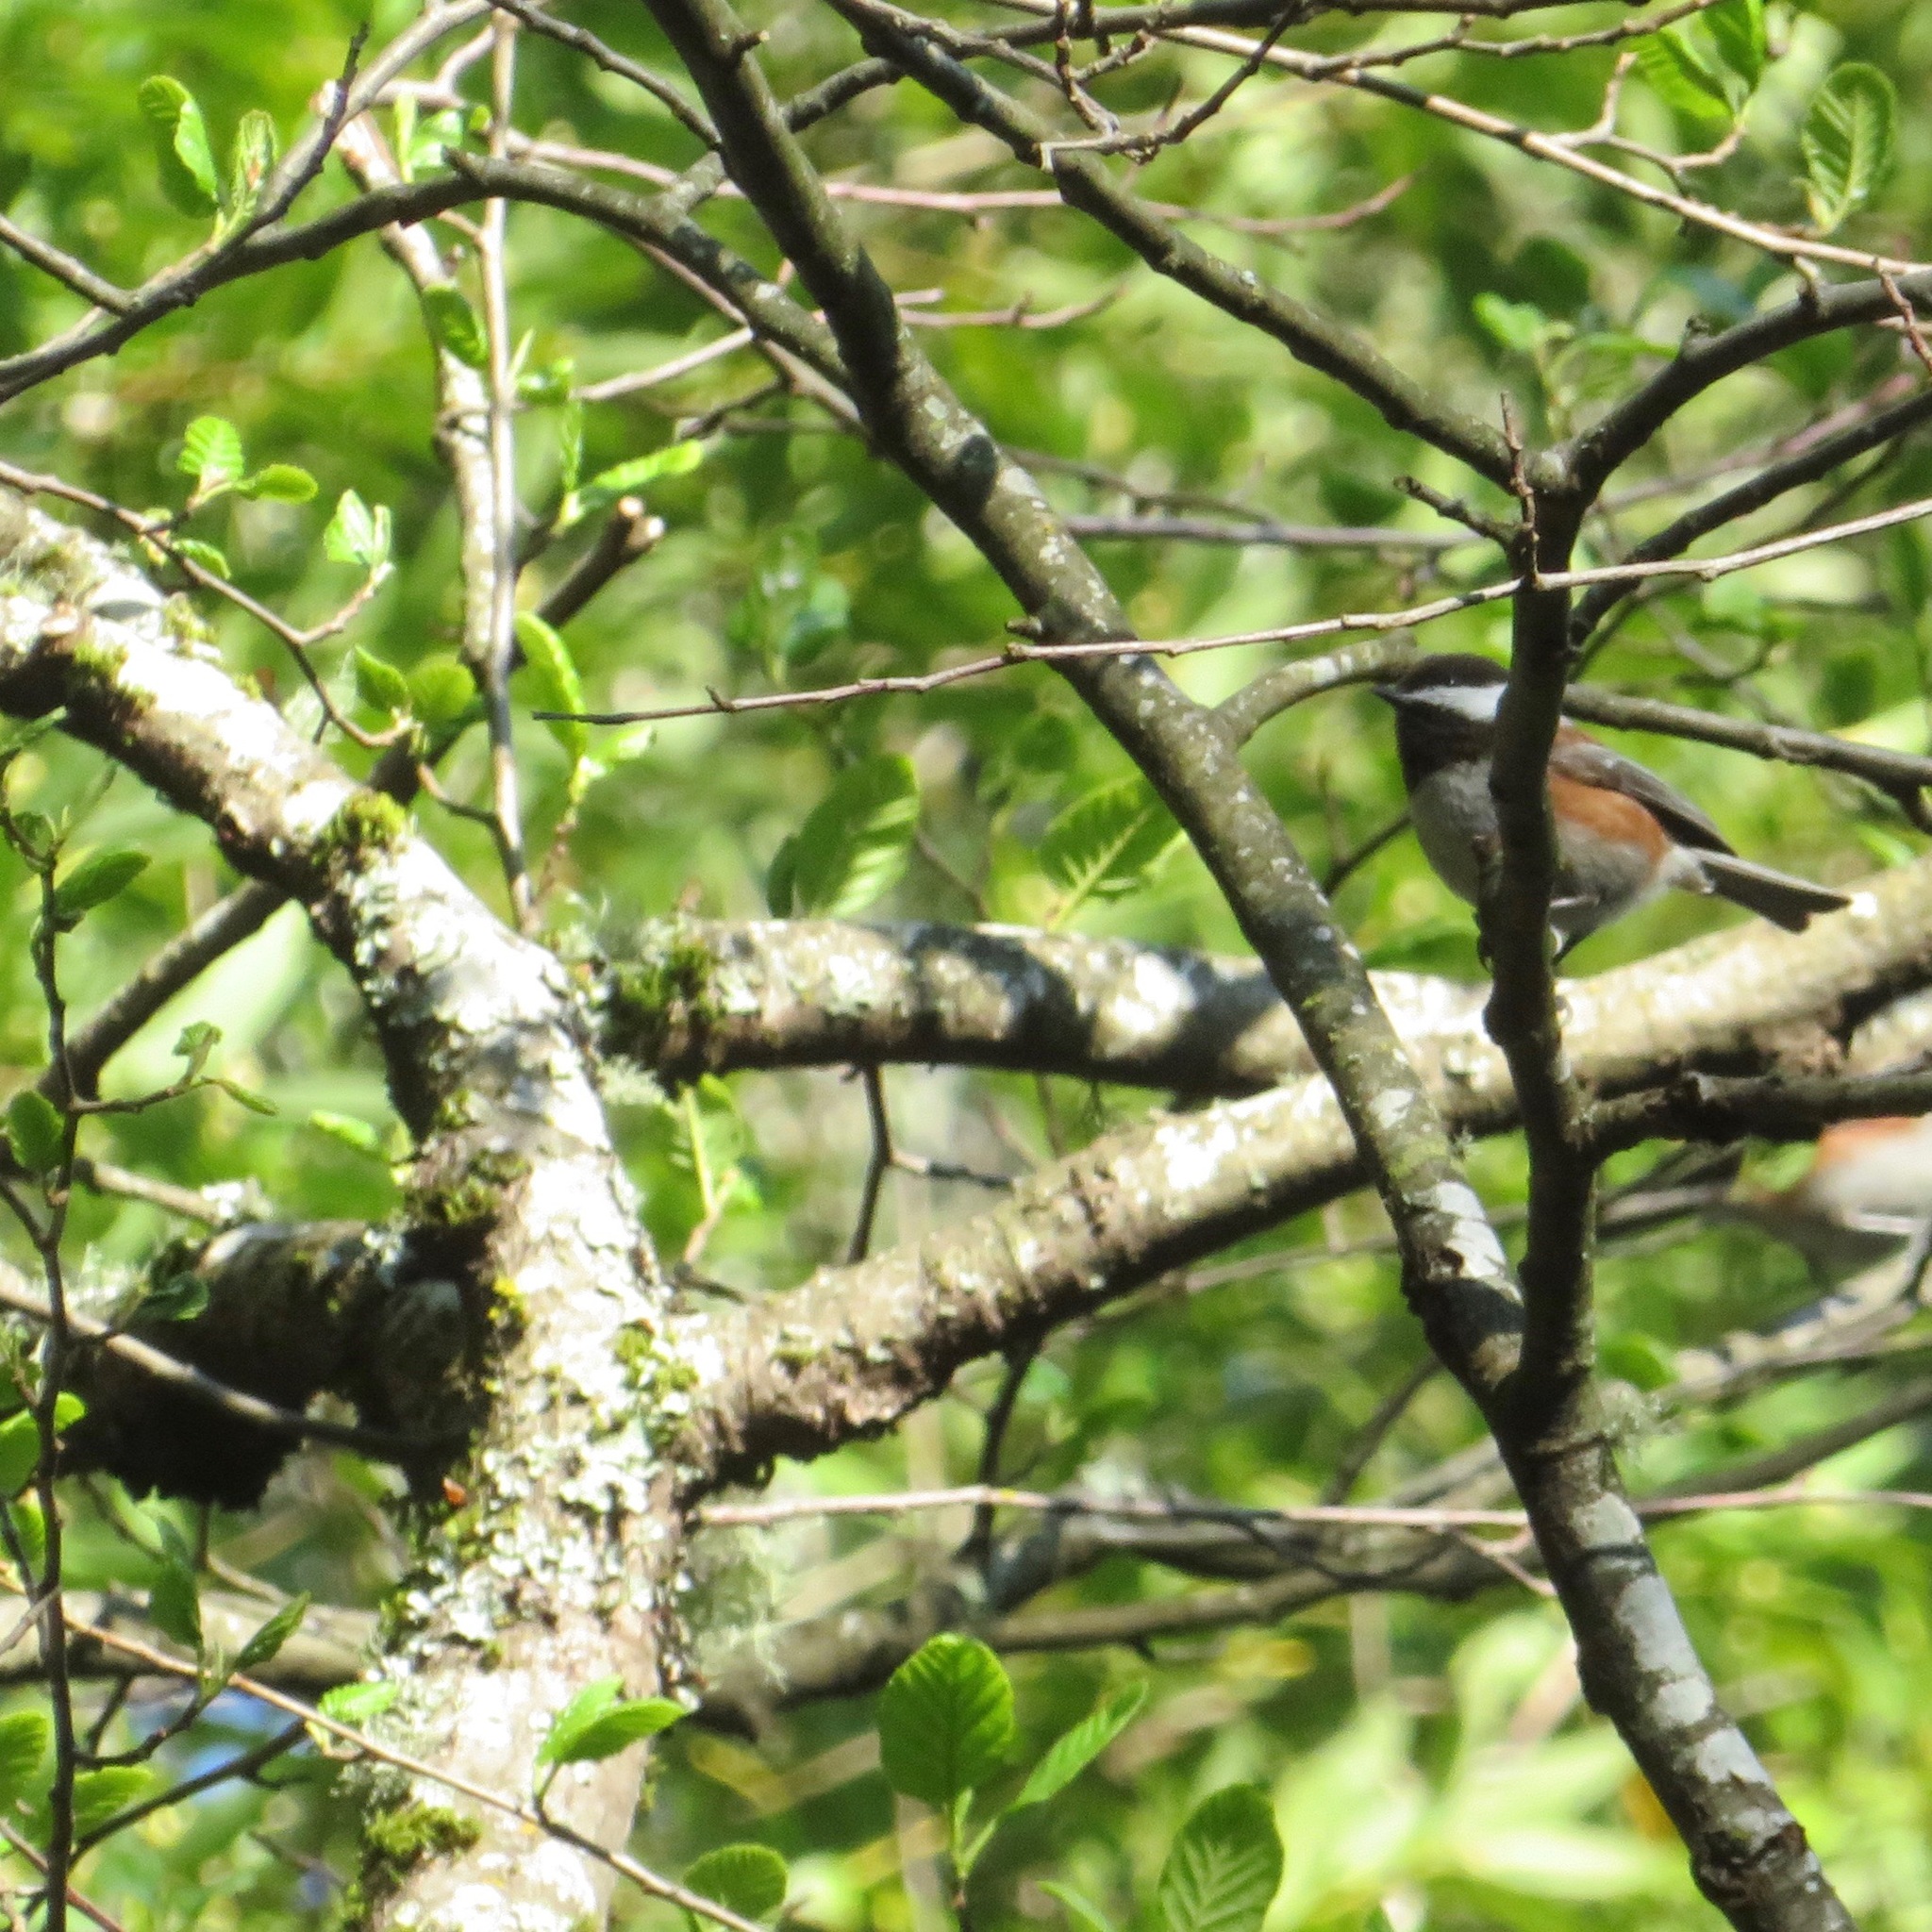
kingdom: Animalia
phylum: Chordata
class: Aves
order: Passeriformes
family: Paridae
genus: Poecile
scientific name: Poecile rufescens
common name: Chestnut-backed chickadee
